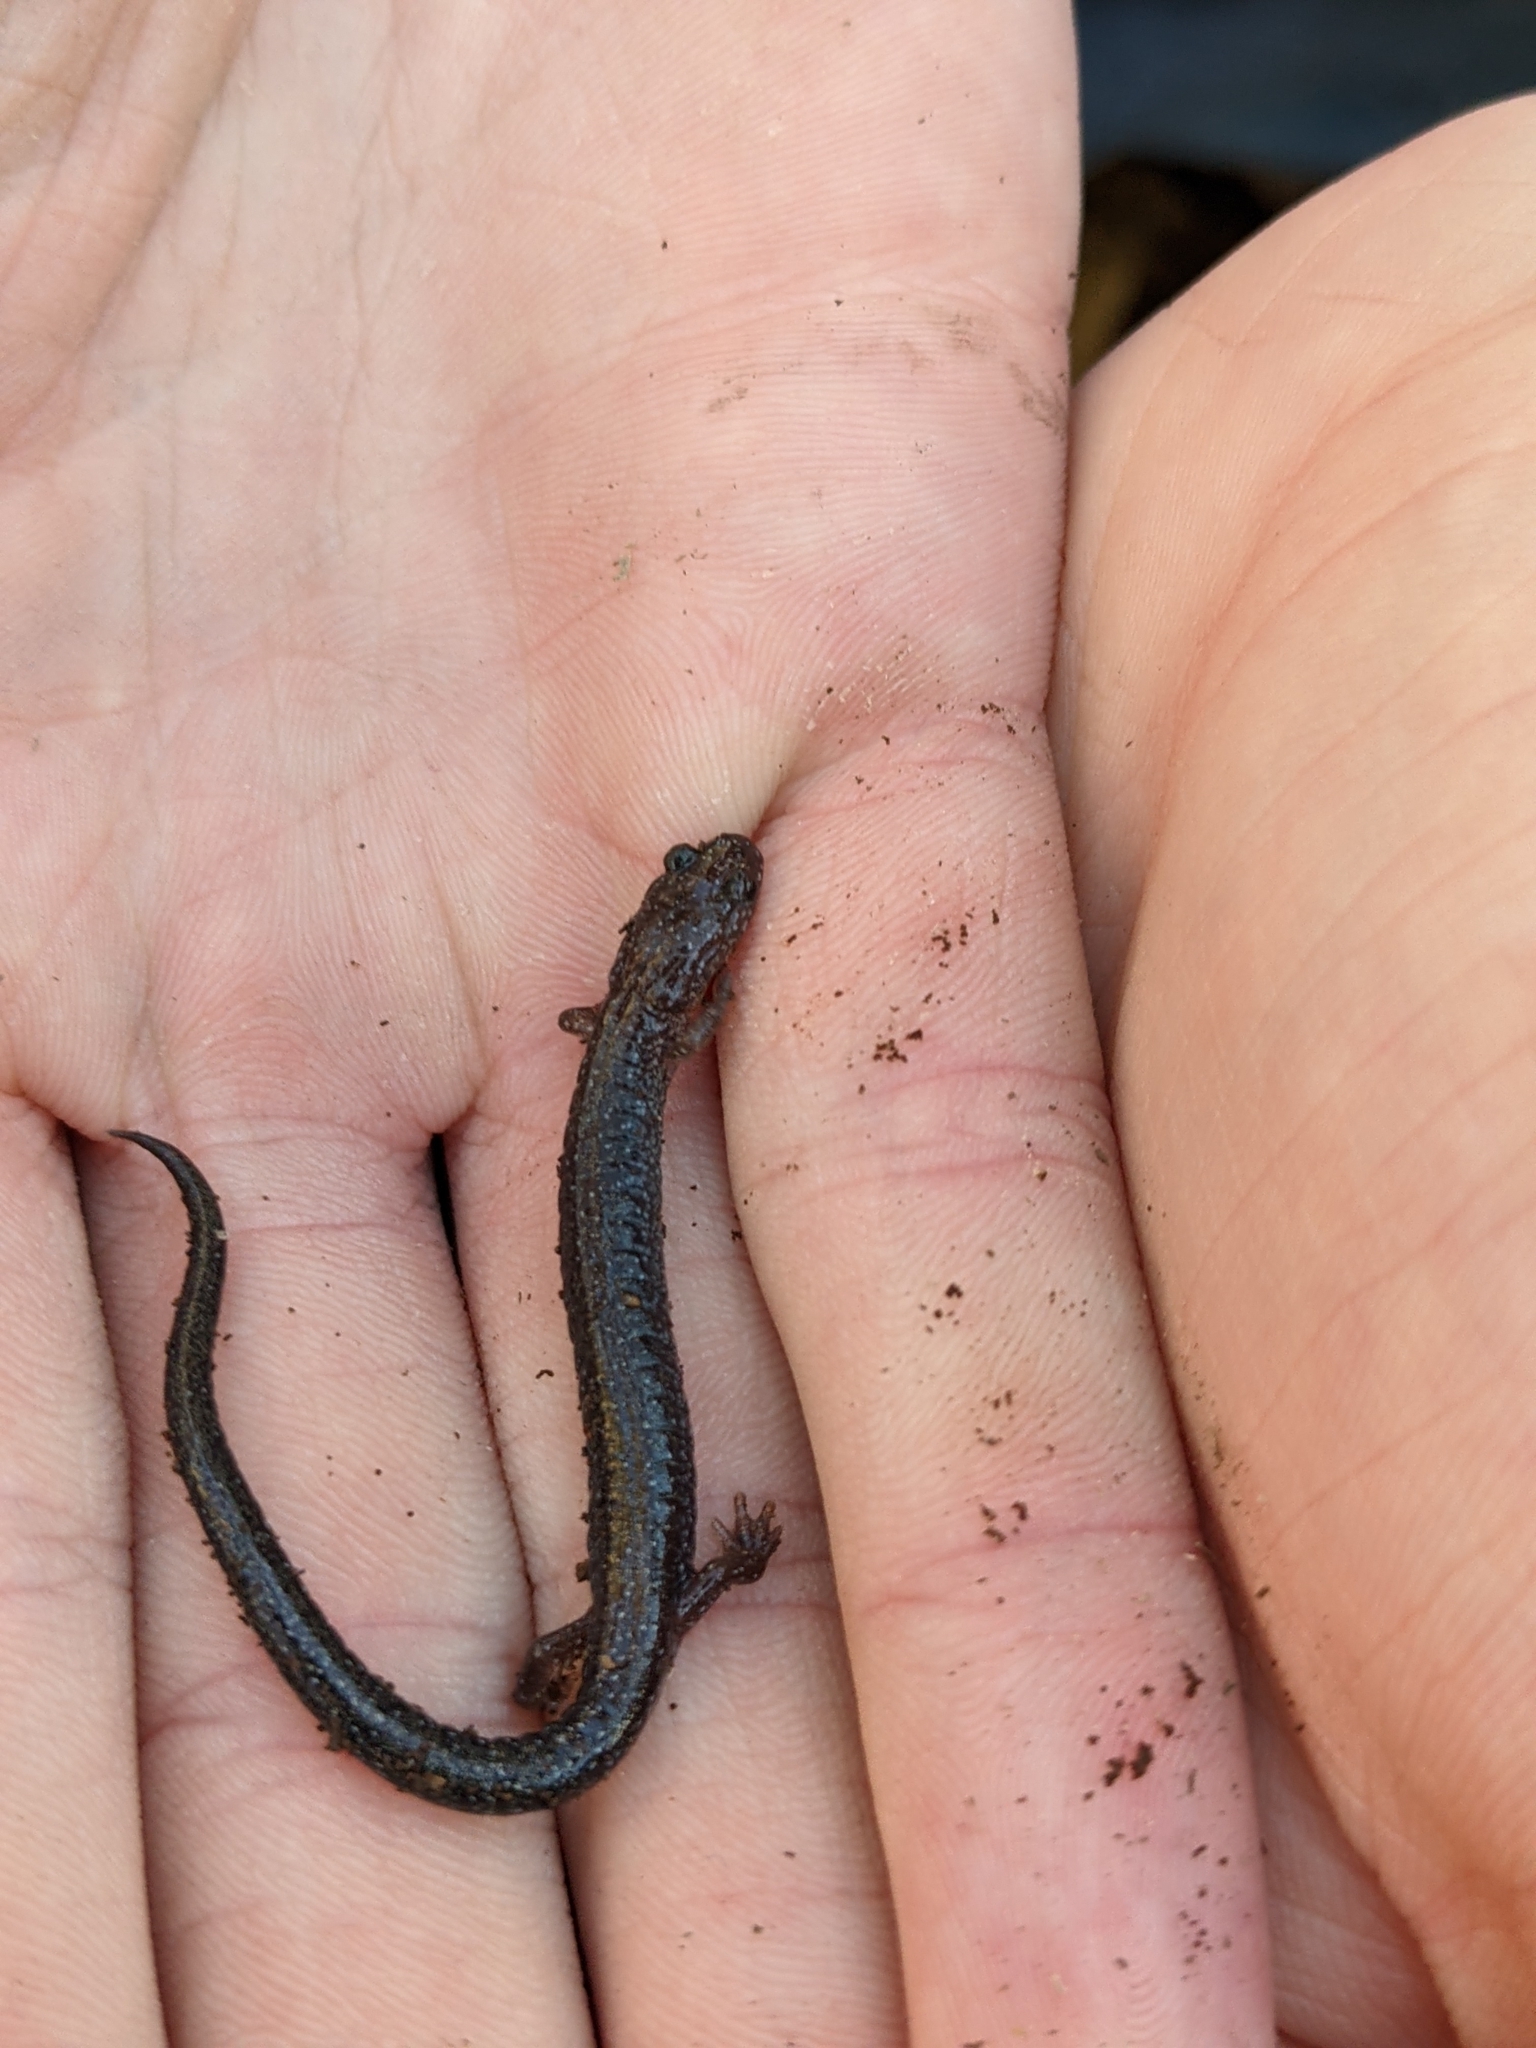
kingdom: Animalia
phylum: Chordata
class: Amphibia
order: Caudata
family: Plethodontidae
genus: Plethodon
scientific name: Plethodon cinereus
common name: Redback salamander
